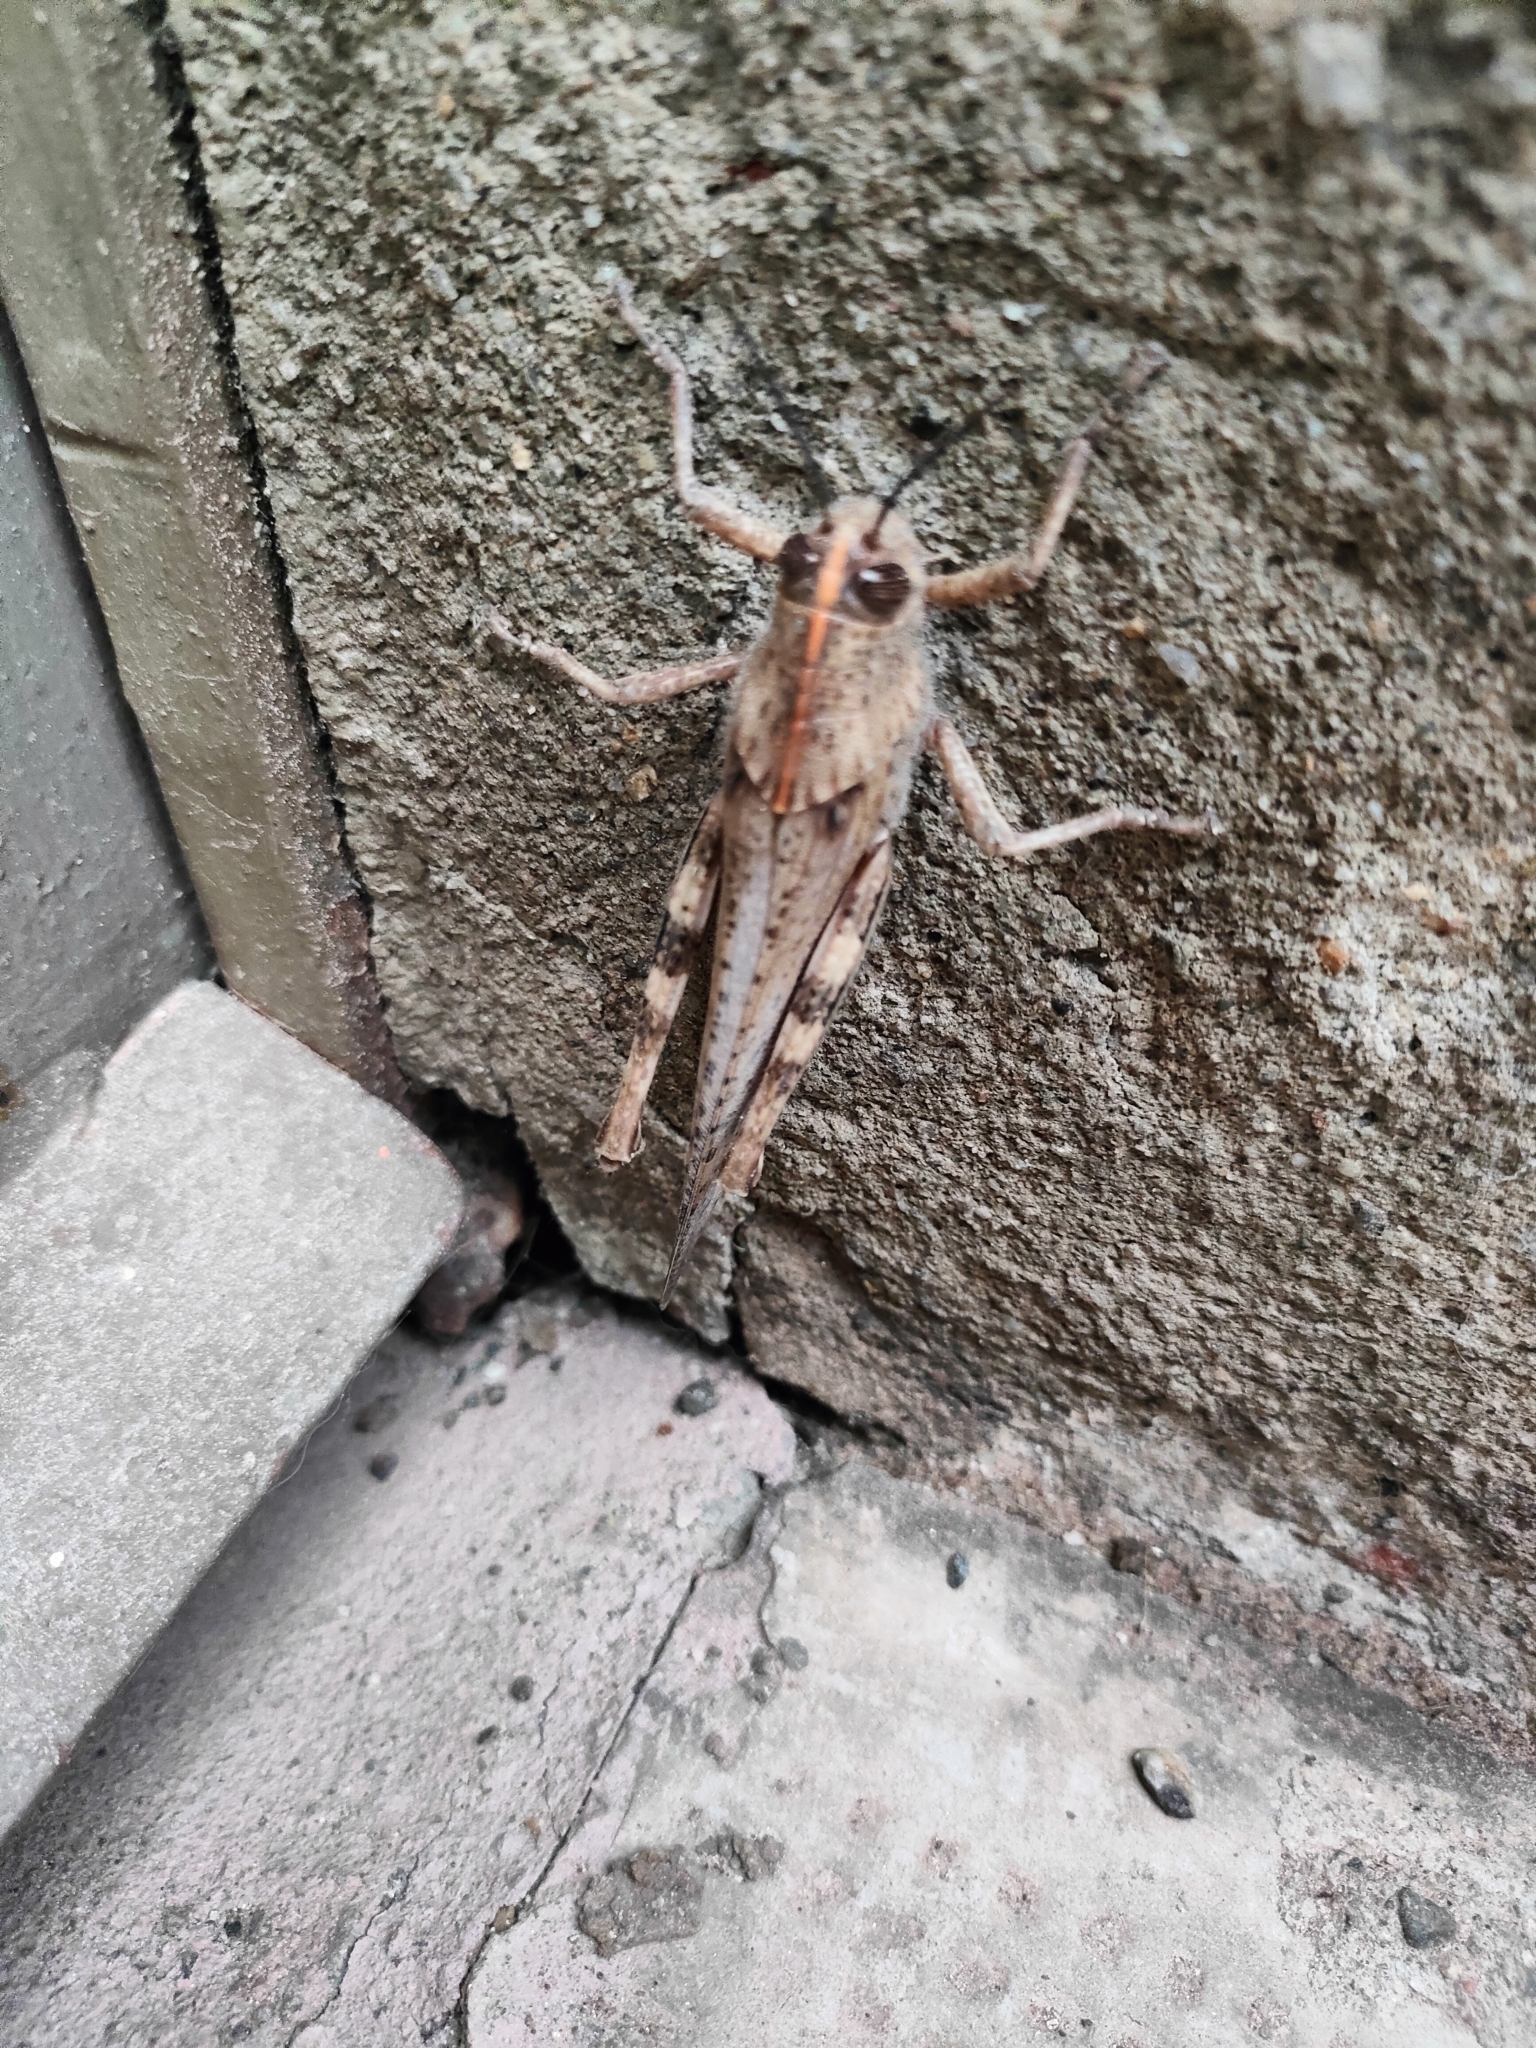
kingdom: Animalia
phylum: Arthropoda
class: Insecta
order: Orthoptera
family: Acrididae
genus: Anacridium
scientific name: Anacridium aegyptium
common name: Egyptian grasshopper
